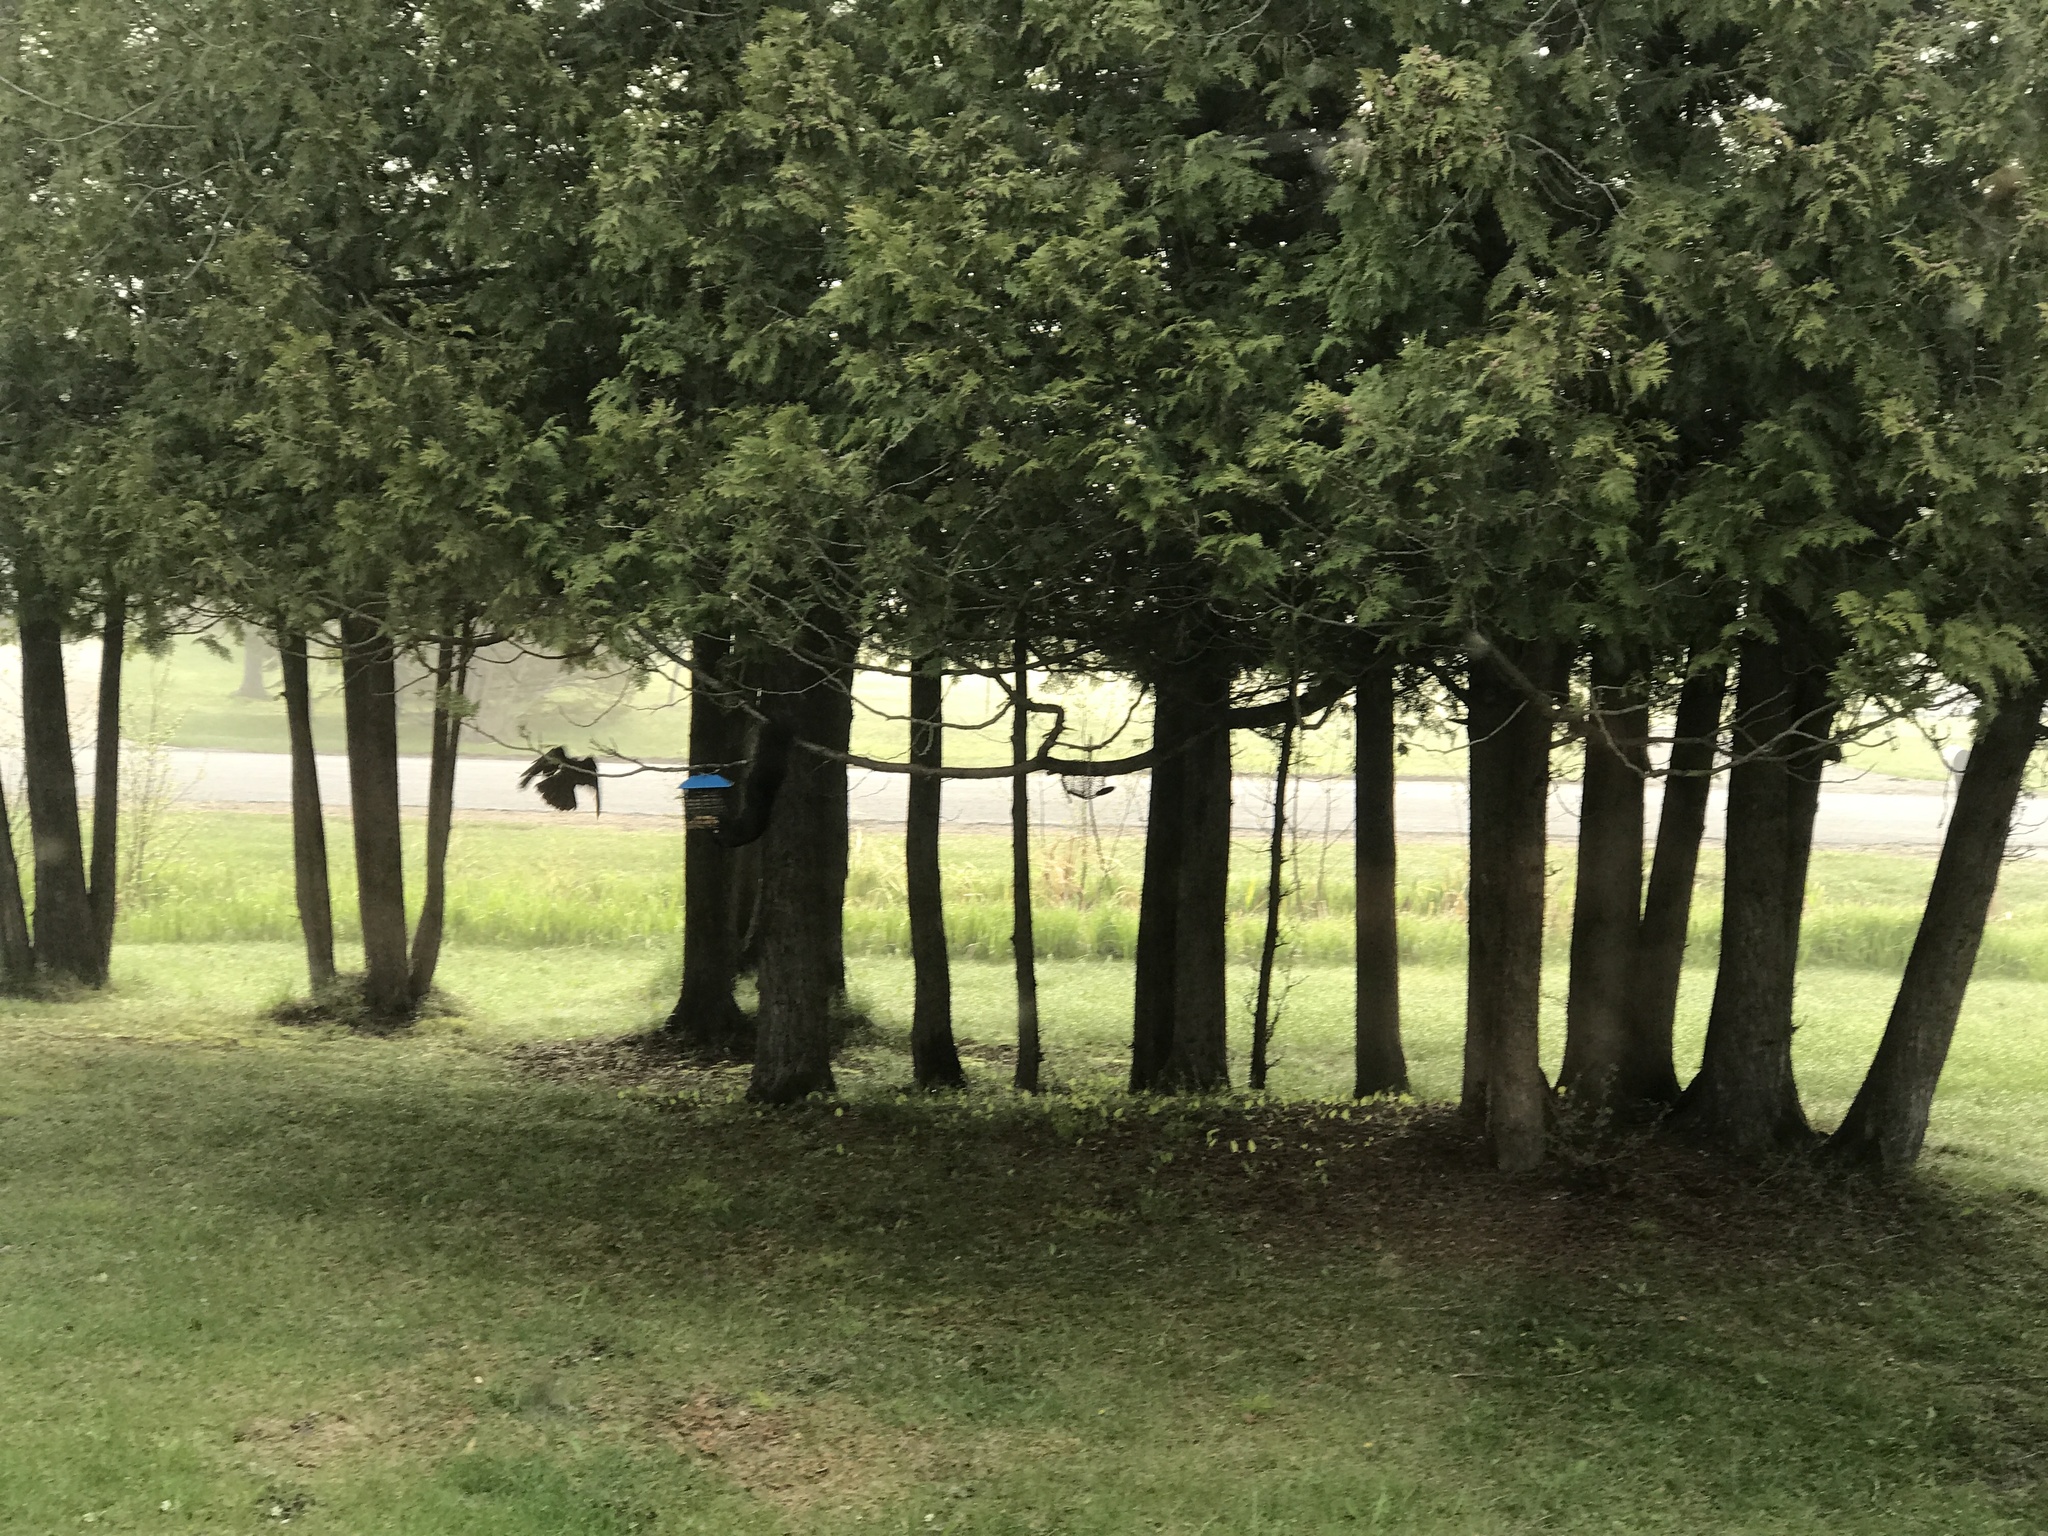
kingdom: Animalia
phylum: Chordata
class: Aves
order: Passeriformes
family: Corvidae
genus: Corvus
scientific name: Corvus brachyrhynchos
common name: American crow
